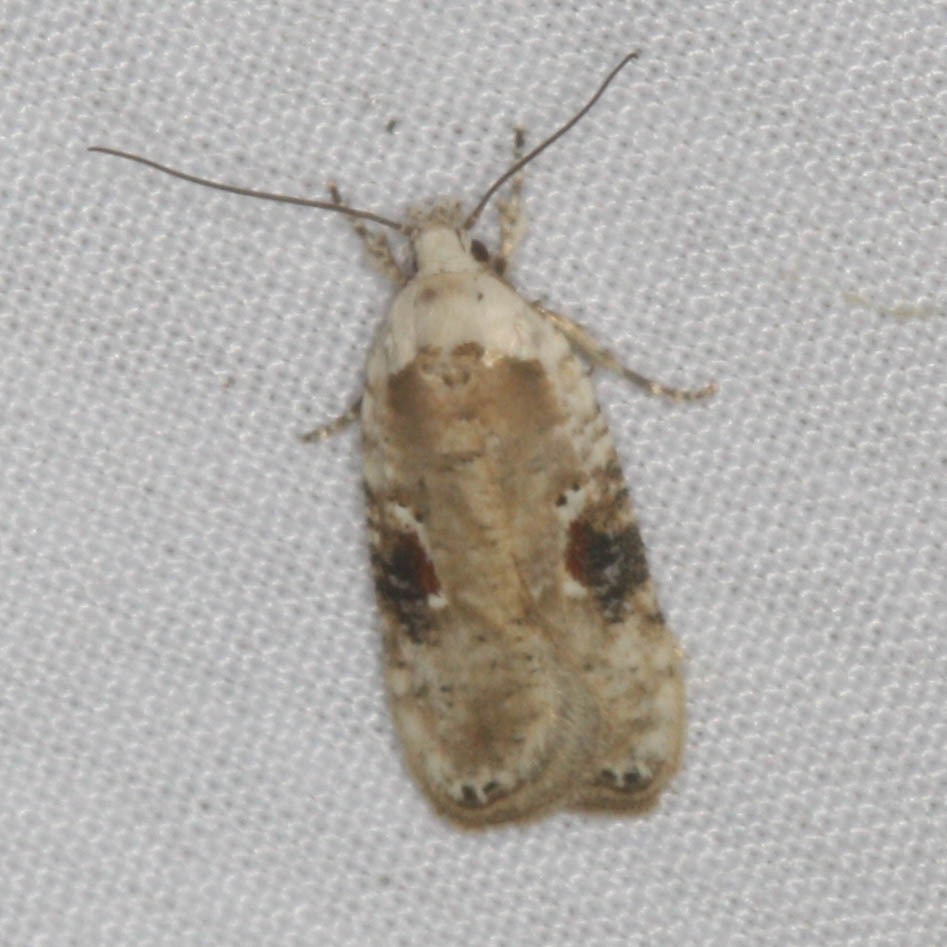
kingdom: Animalia
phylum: Arthropoda
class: Insecta
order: Lepidoptera
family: Depressariidae
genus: Agonopterix
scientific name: Agonopterix alstroemeriana
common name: Moth
